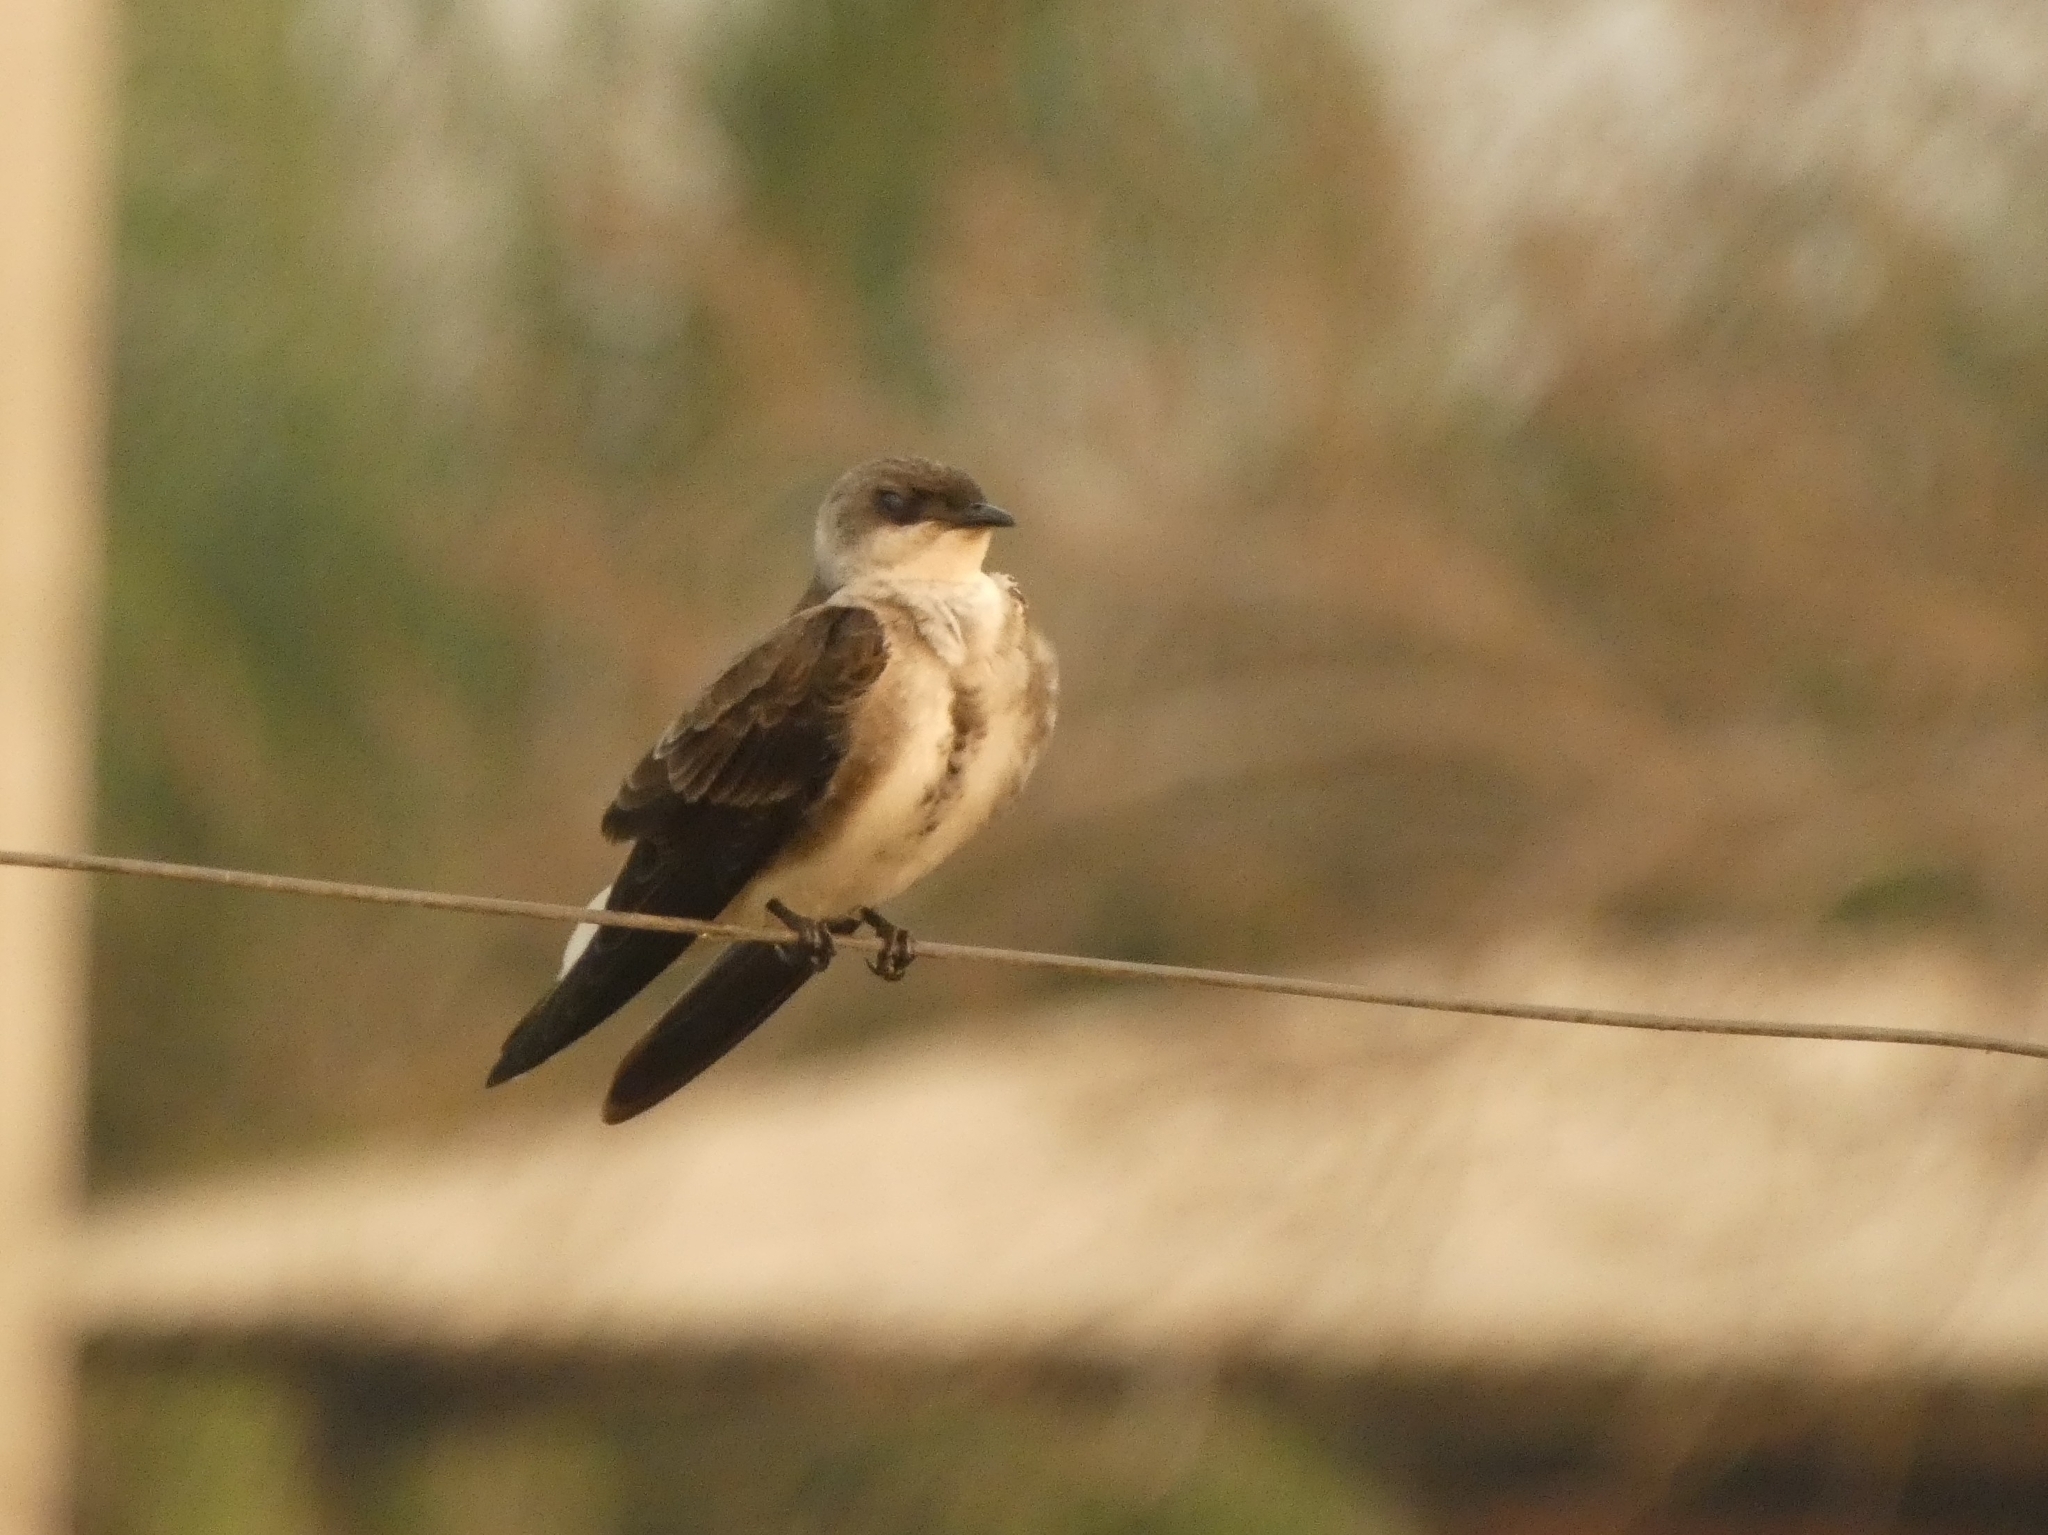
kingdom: Animalia
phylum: Chordata
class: Aves
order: Passeriformes
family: Hirundinidae
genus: Progne
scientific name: Progne tapera
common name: Brown-chested martin
